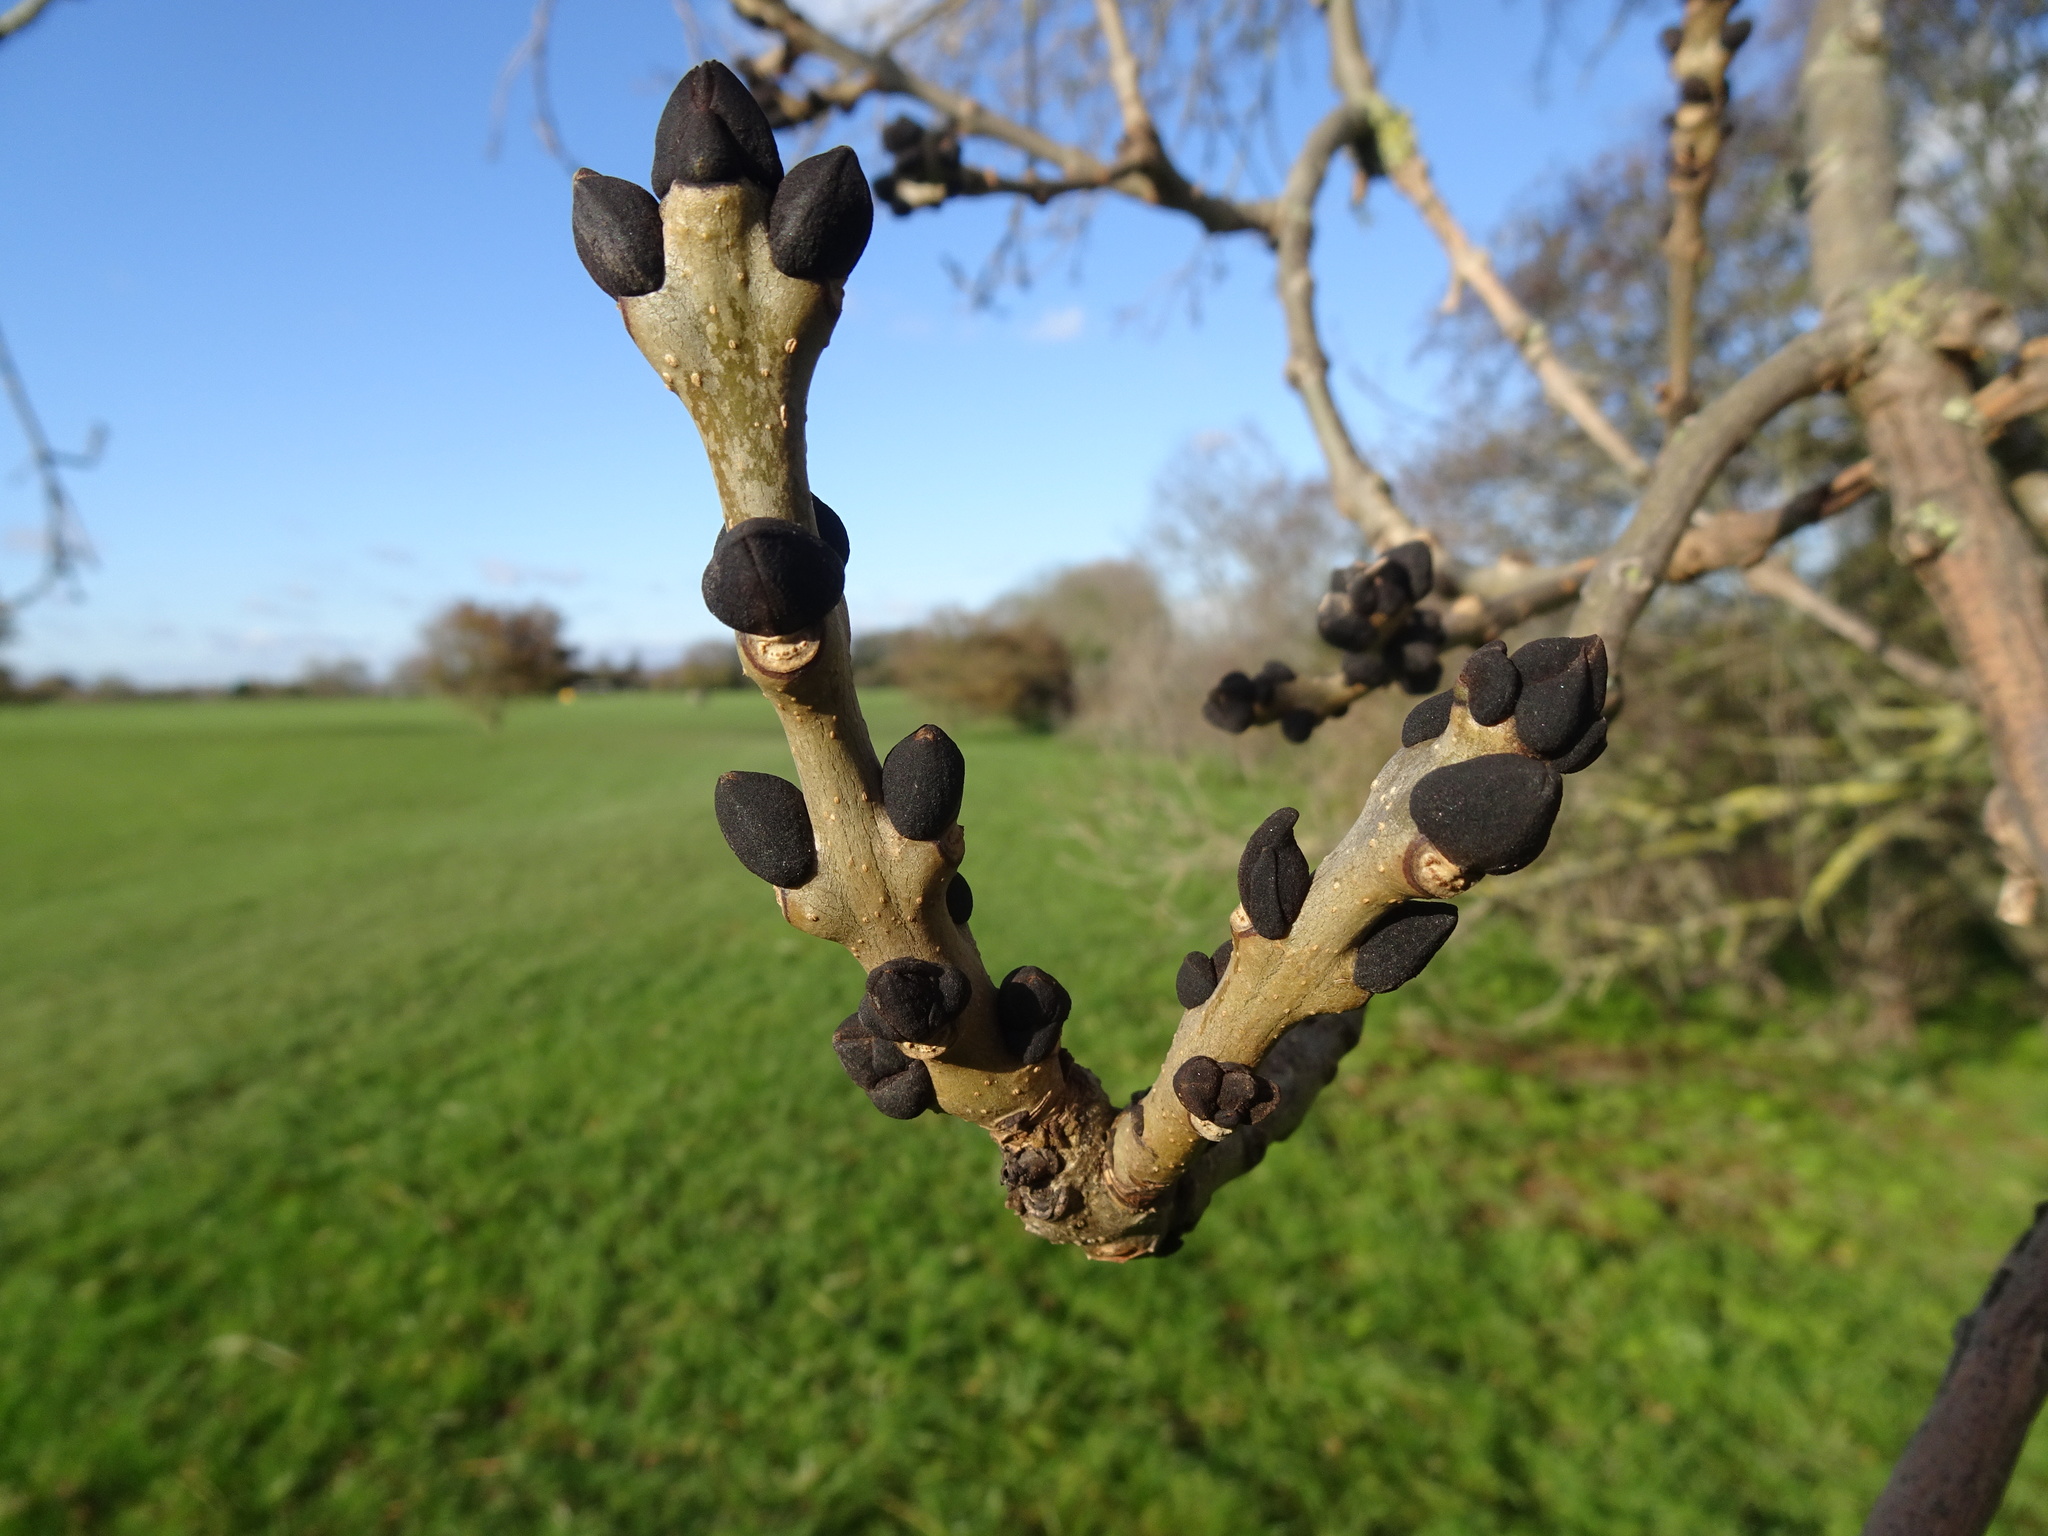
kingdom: Plantae
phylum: Tracheophyta
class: Magnoliopsida
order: Lamiales
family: Oleaceae
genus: Fraxinus
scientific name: Fraxinus excelsior
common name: European ash
